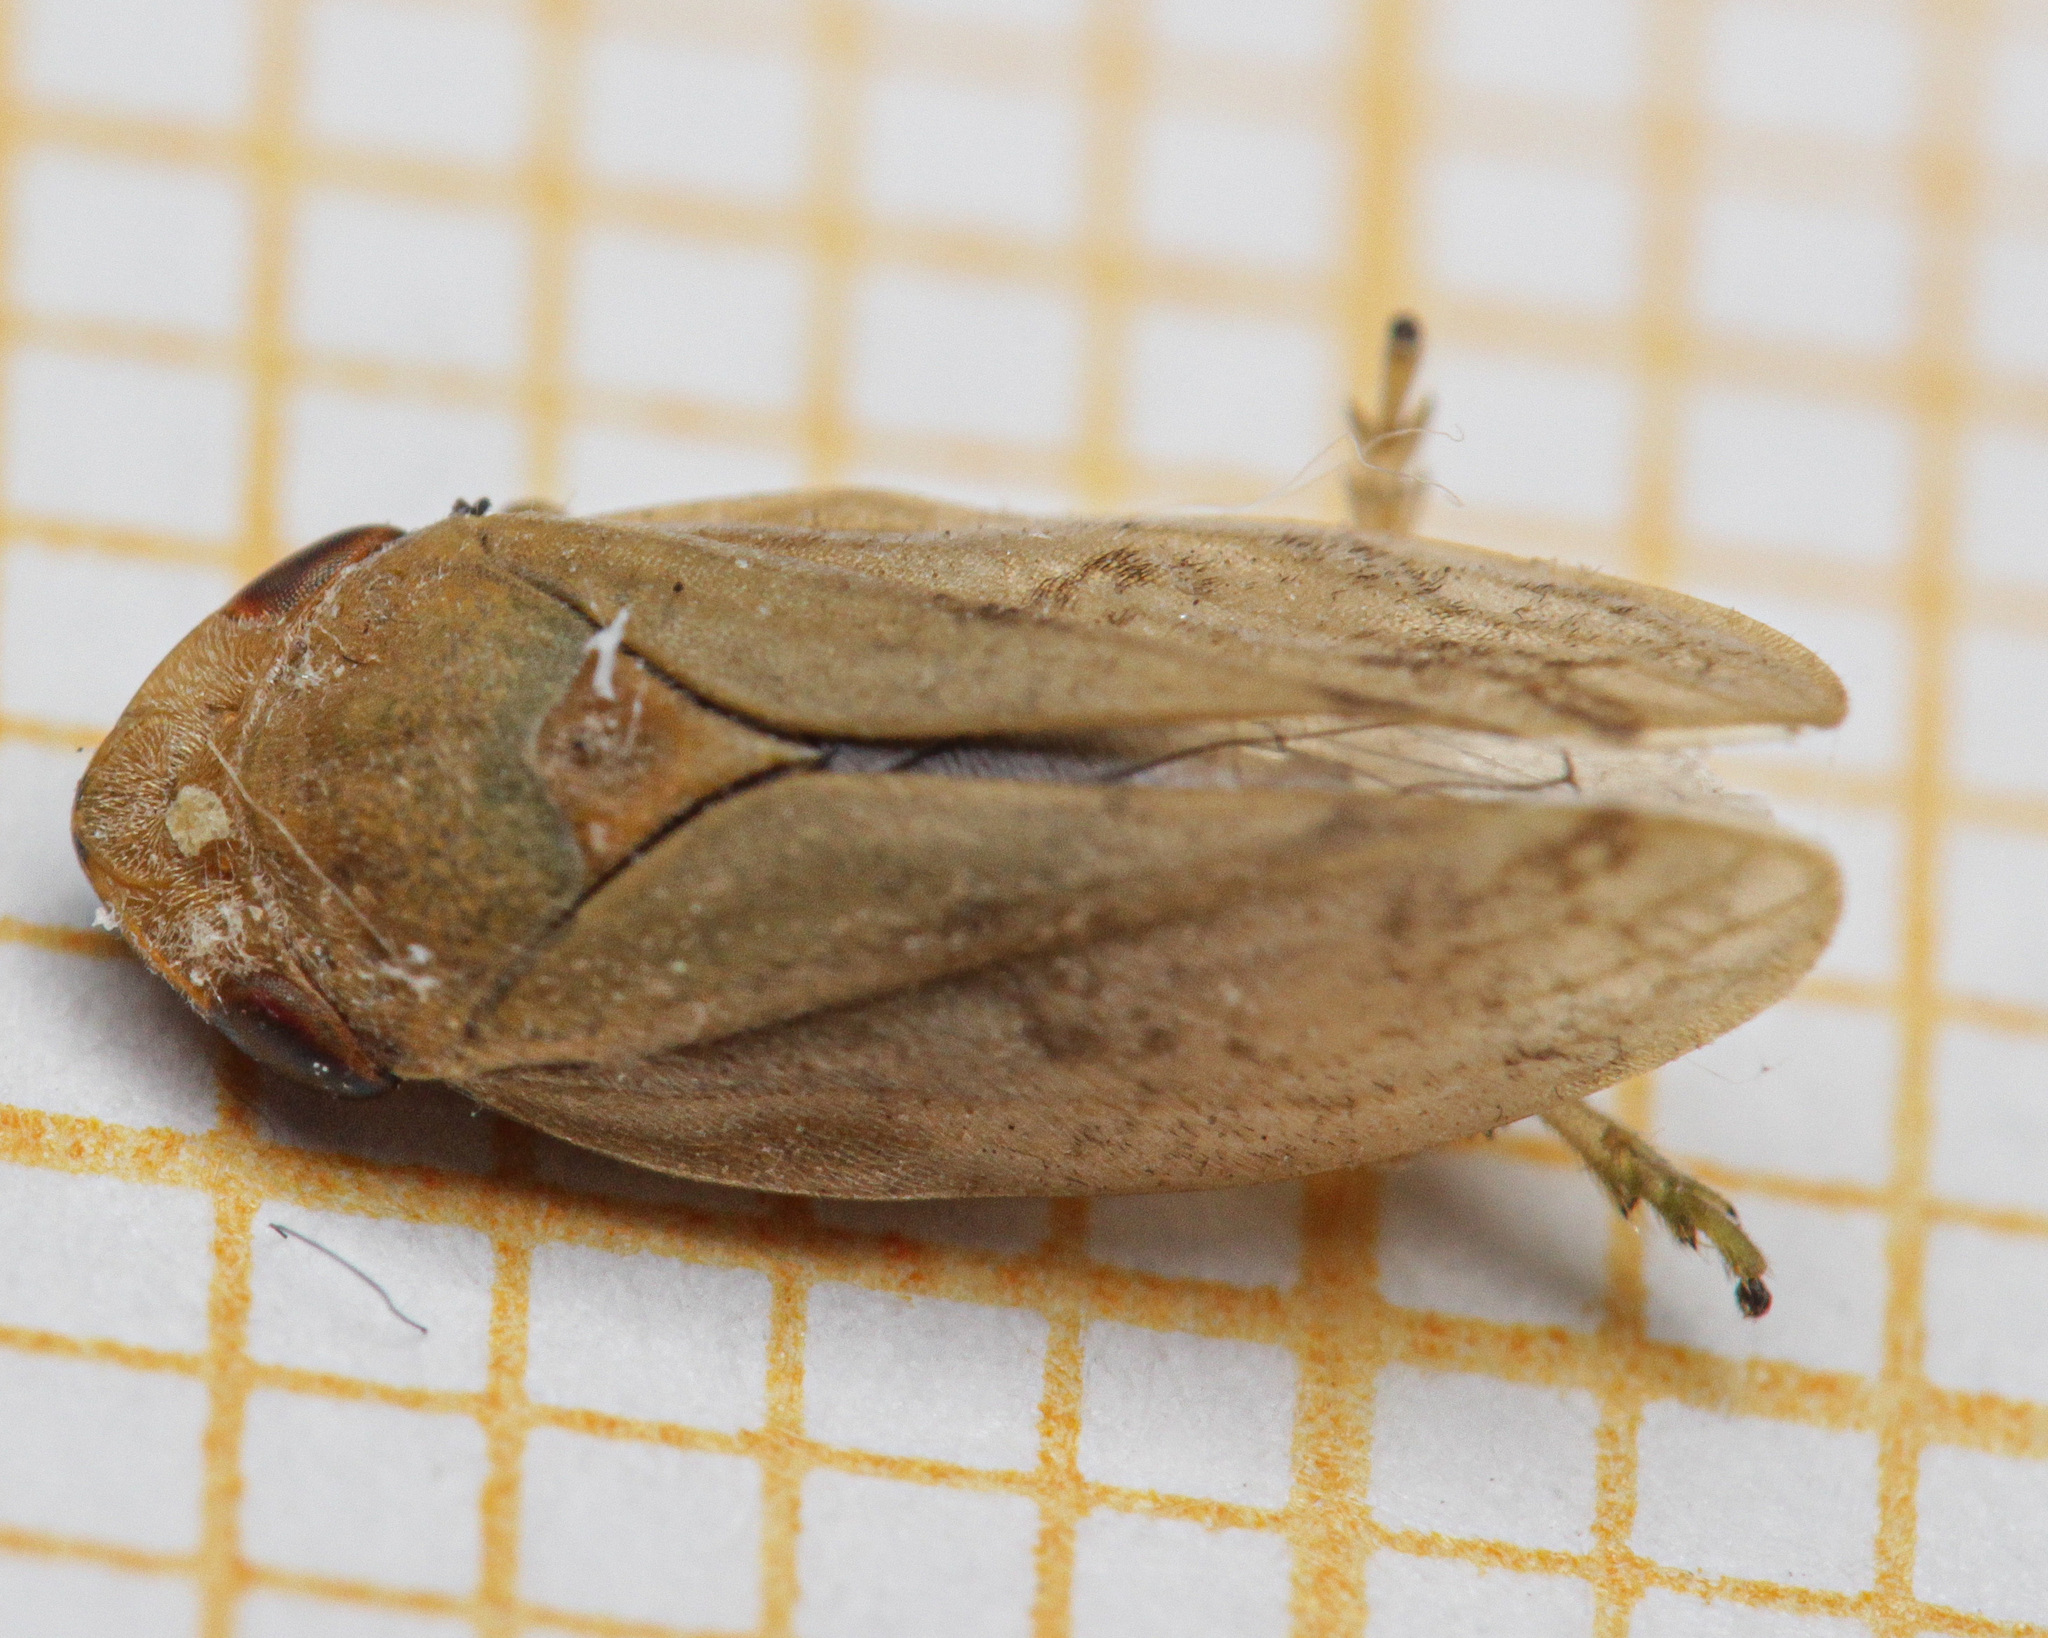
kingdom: Animalia
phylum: Arthropoda
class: Insecta
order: Hemiptera
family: Aphrophoridae
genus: Philaenus
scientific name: Philaenus spumarius
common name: Meadow spittlebug
